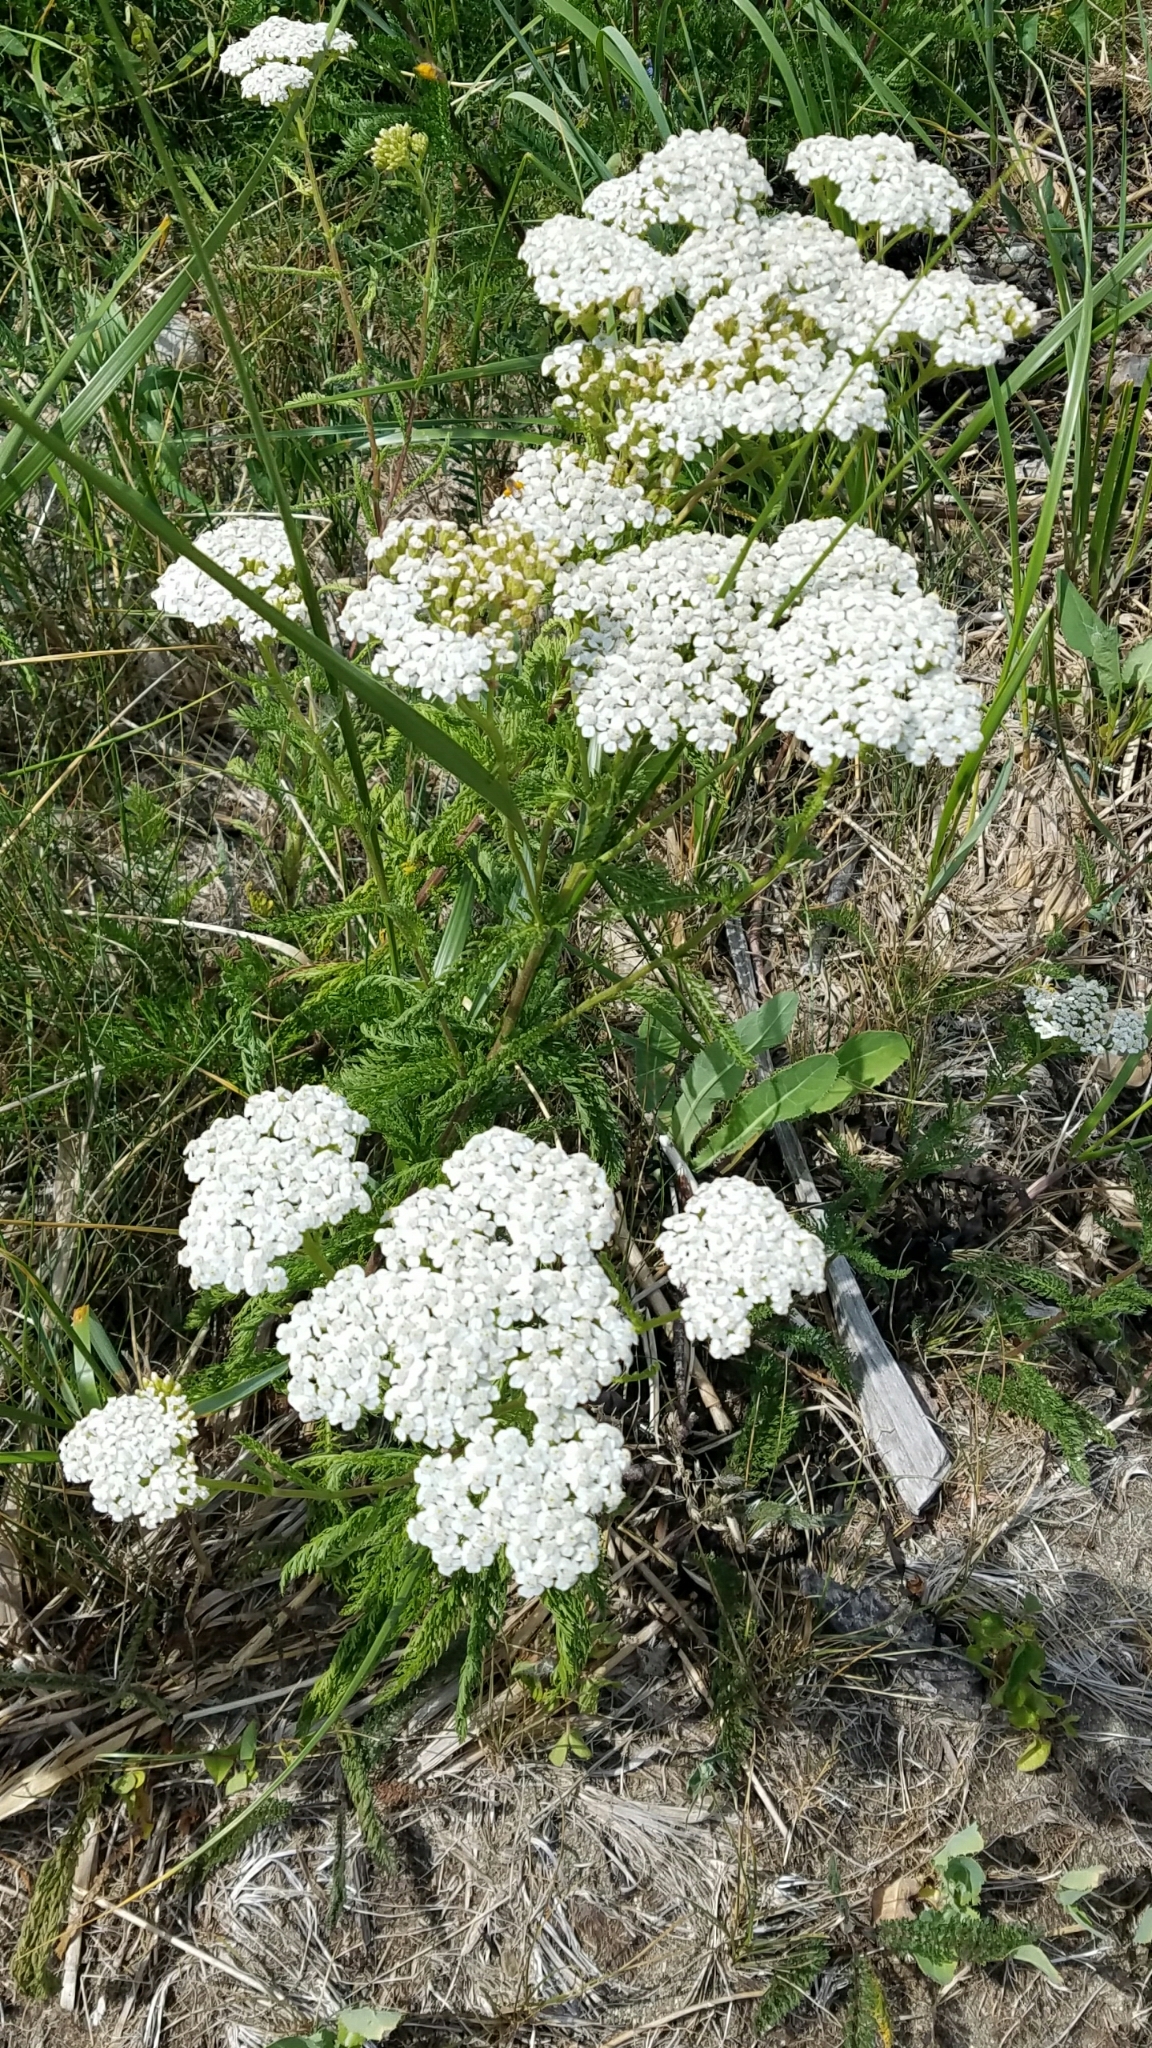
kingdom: Plantae
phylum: Tracheophyta
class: Magnoliopsida
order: Asterales
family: Asteraceae
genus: Achillea
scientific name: Achillea millefolium
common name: Yarrow
